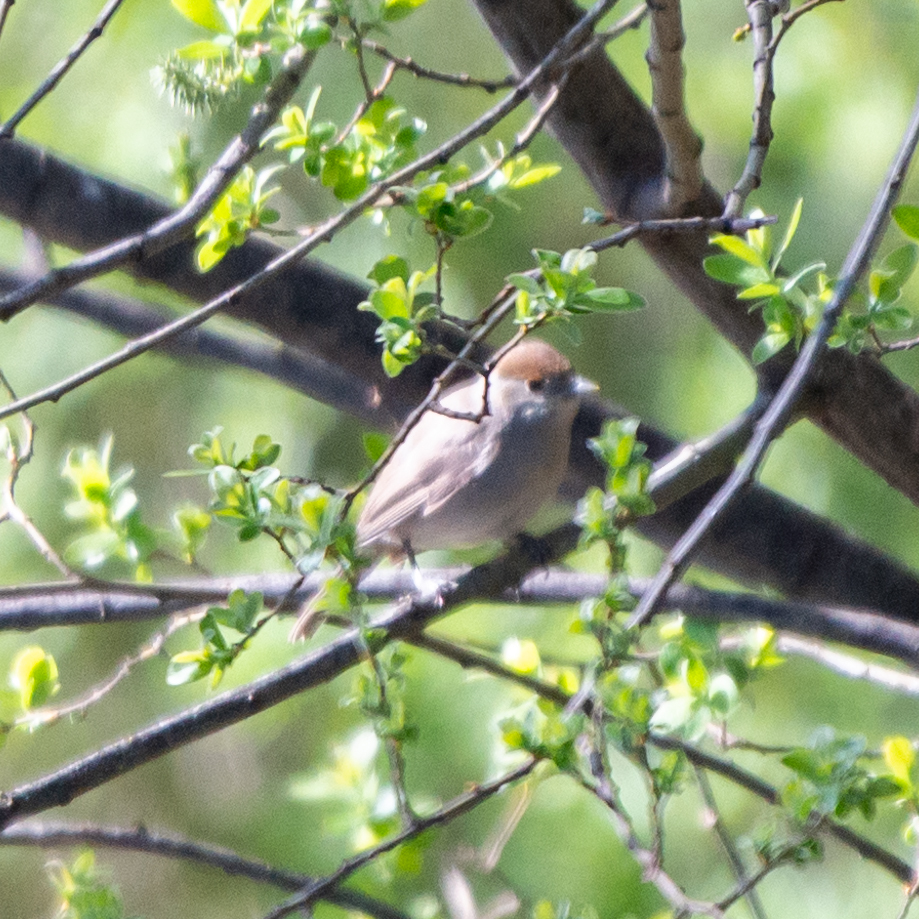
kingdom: Animalia
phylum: Chordata
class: Aves
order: Passeriformes
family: Sylviidae
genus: Sylvia
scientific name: Sylvia atricapilla
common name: Eurasian blackcap
